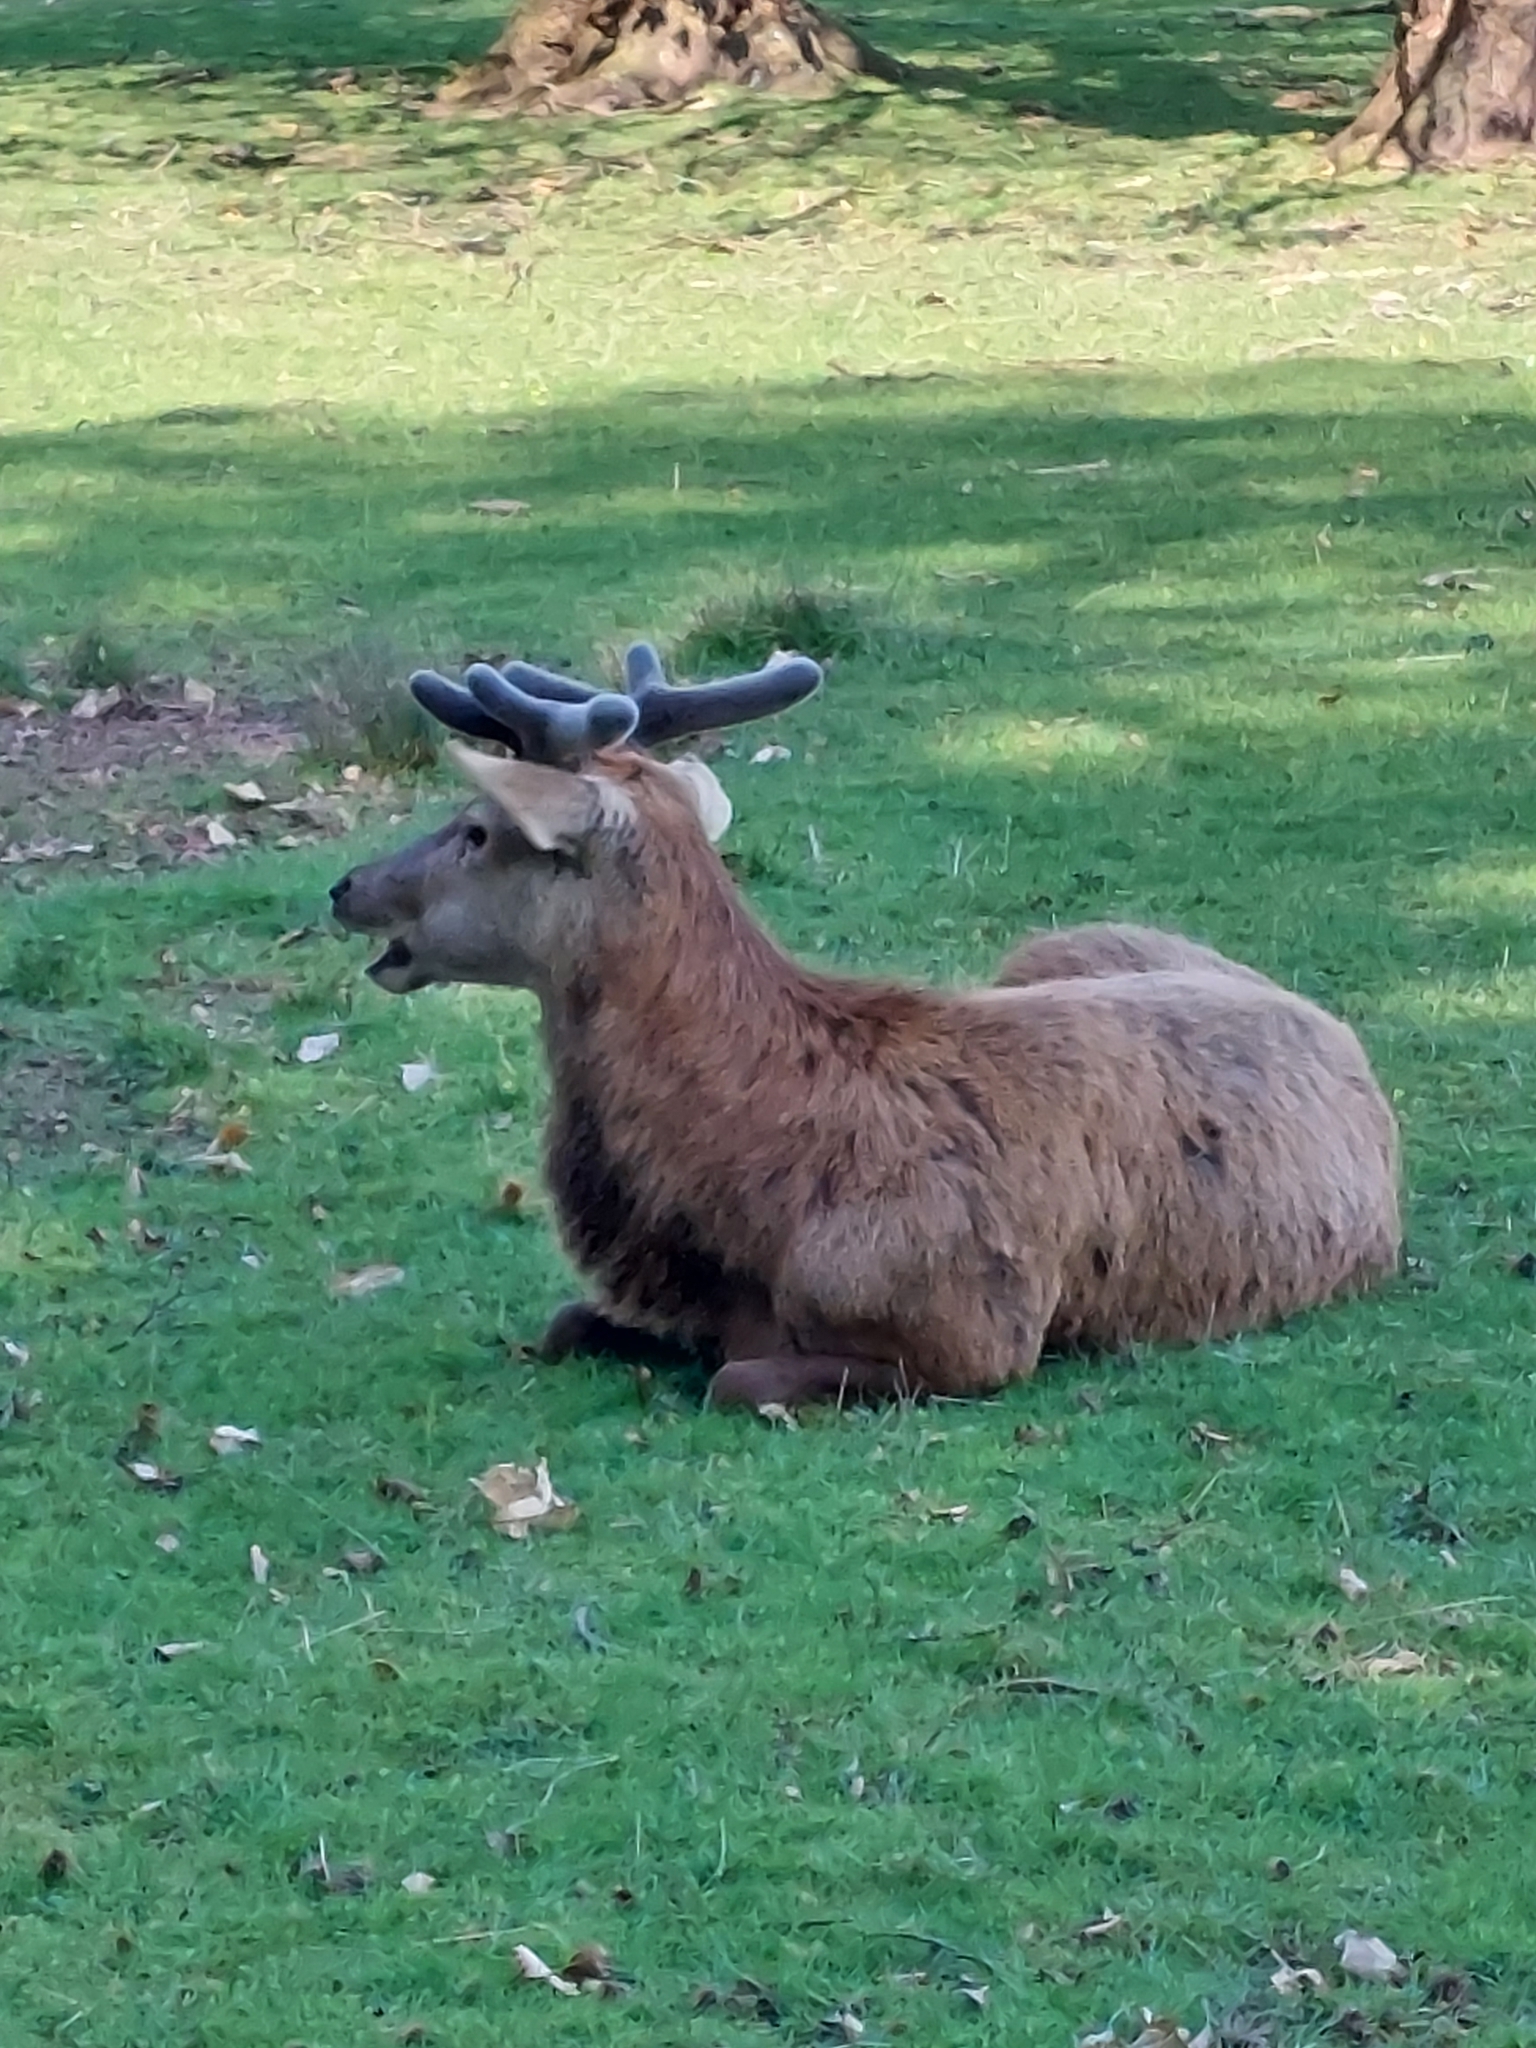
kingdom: Animalia
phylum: Chordata
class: Mammalia
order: Artiodactyla
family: Cervidae
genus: Cervus
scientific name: Cervus elaphus
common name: Red deer
